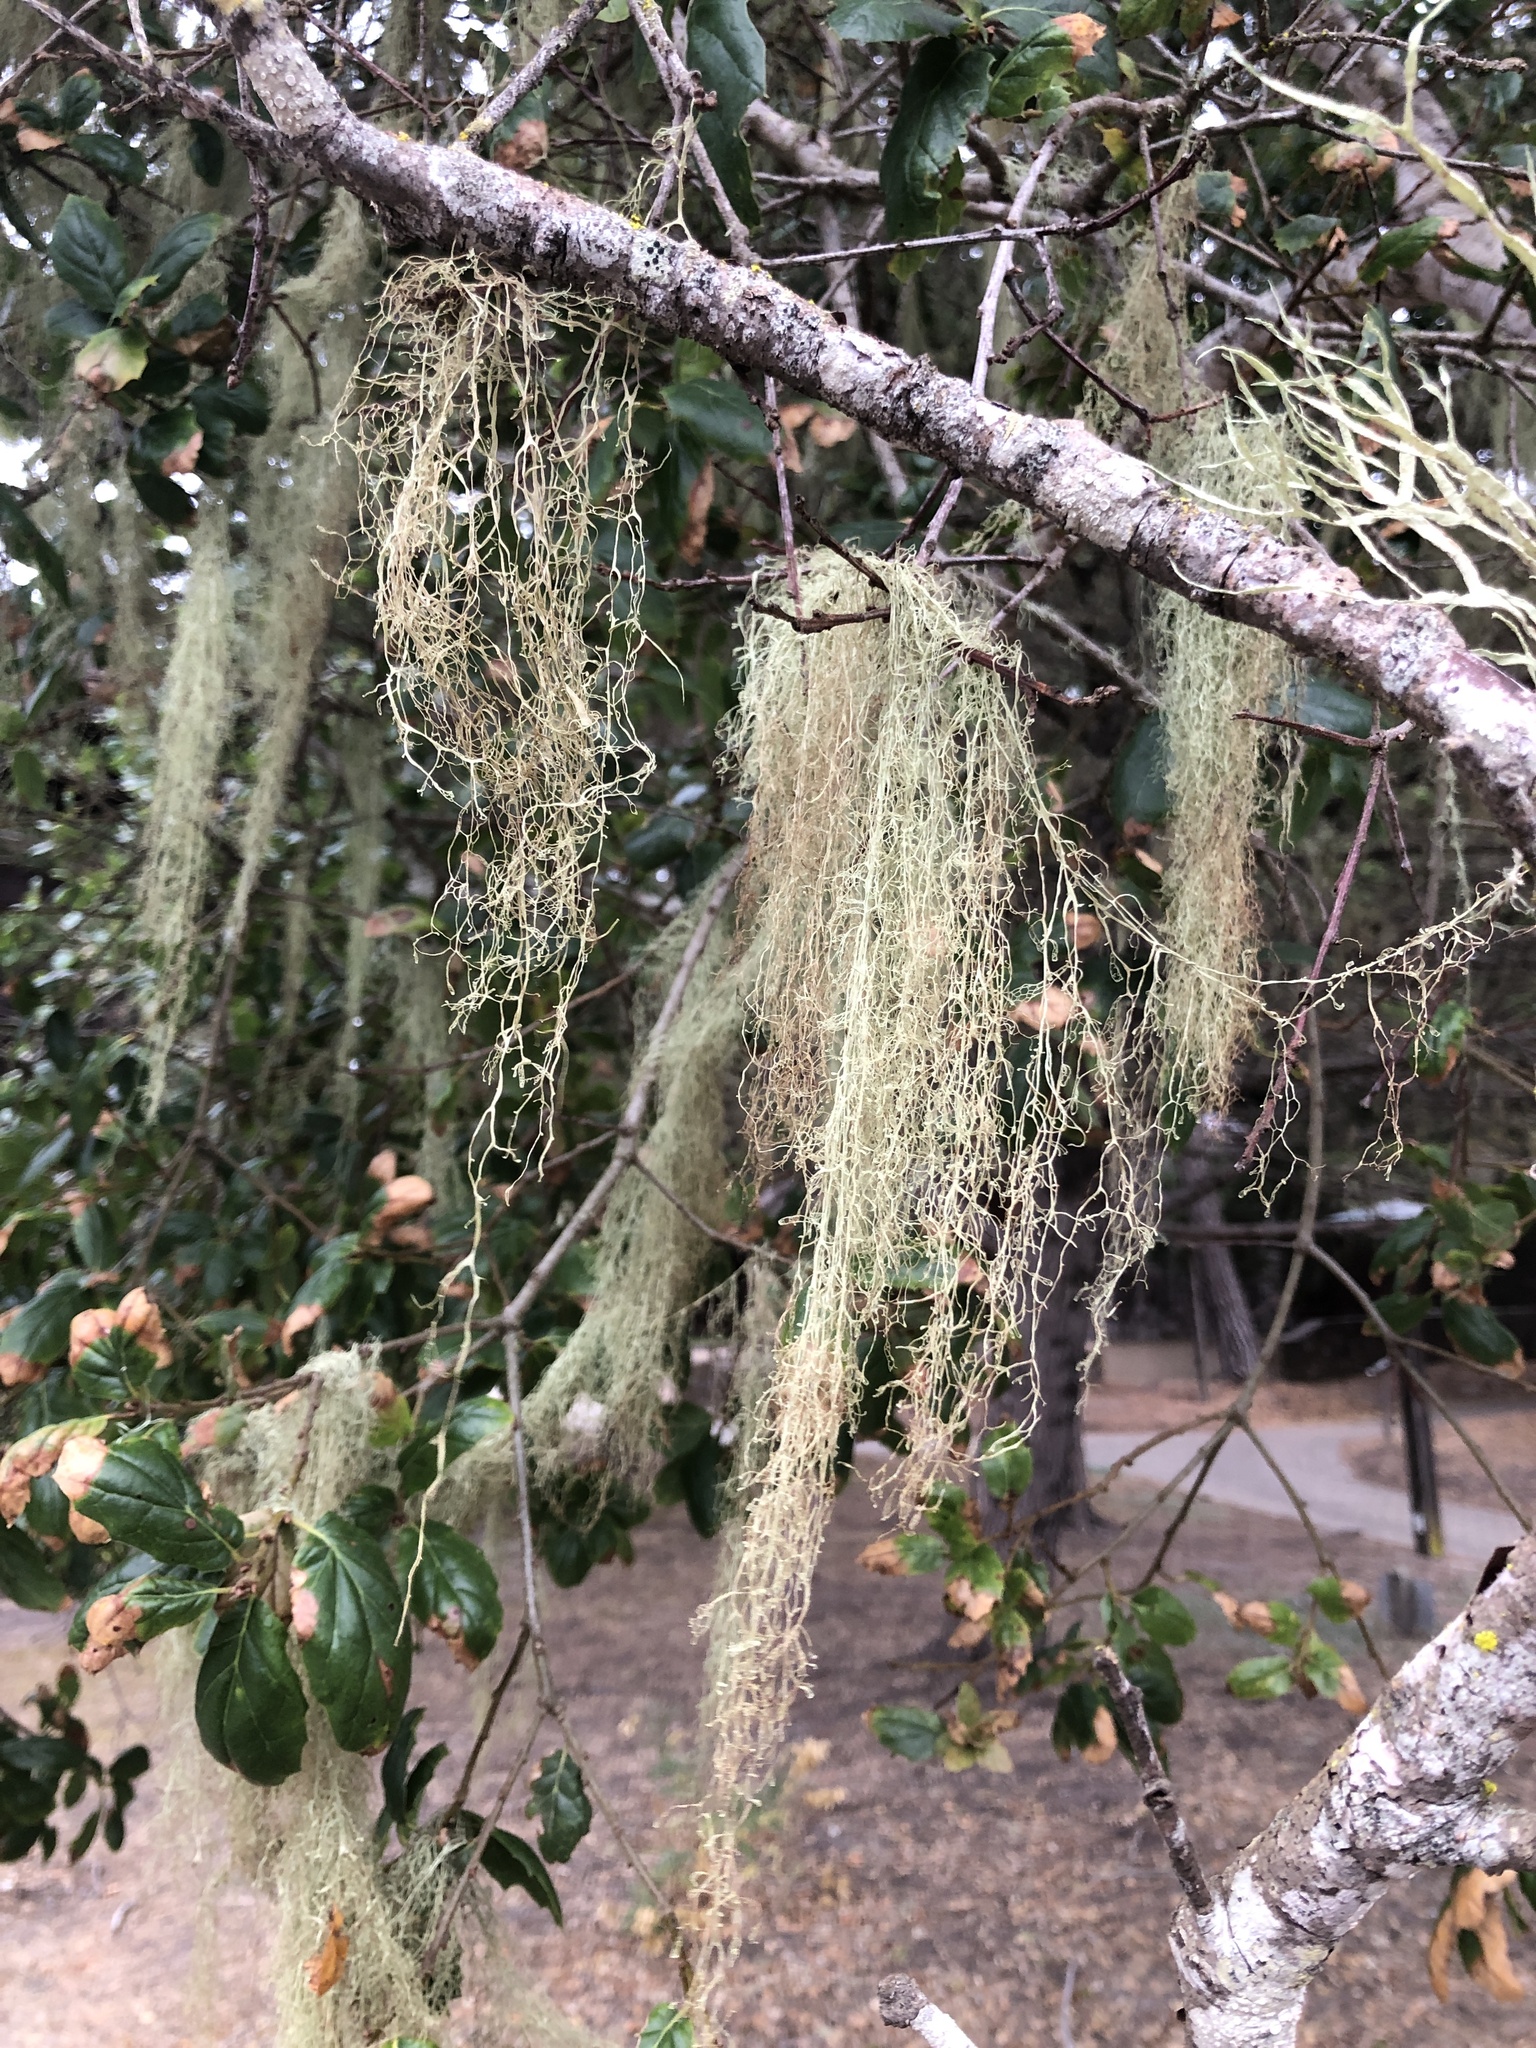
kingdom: Fungi
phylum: Ascomycota
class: Lecanoromycetes
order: Lecanorales
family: Ramalinaceae
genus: Ramalina
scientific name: Ramalina menziesii
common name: Lace lichen
